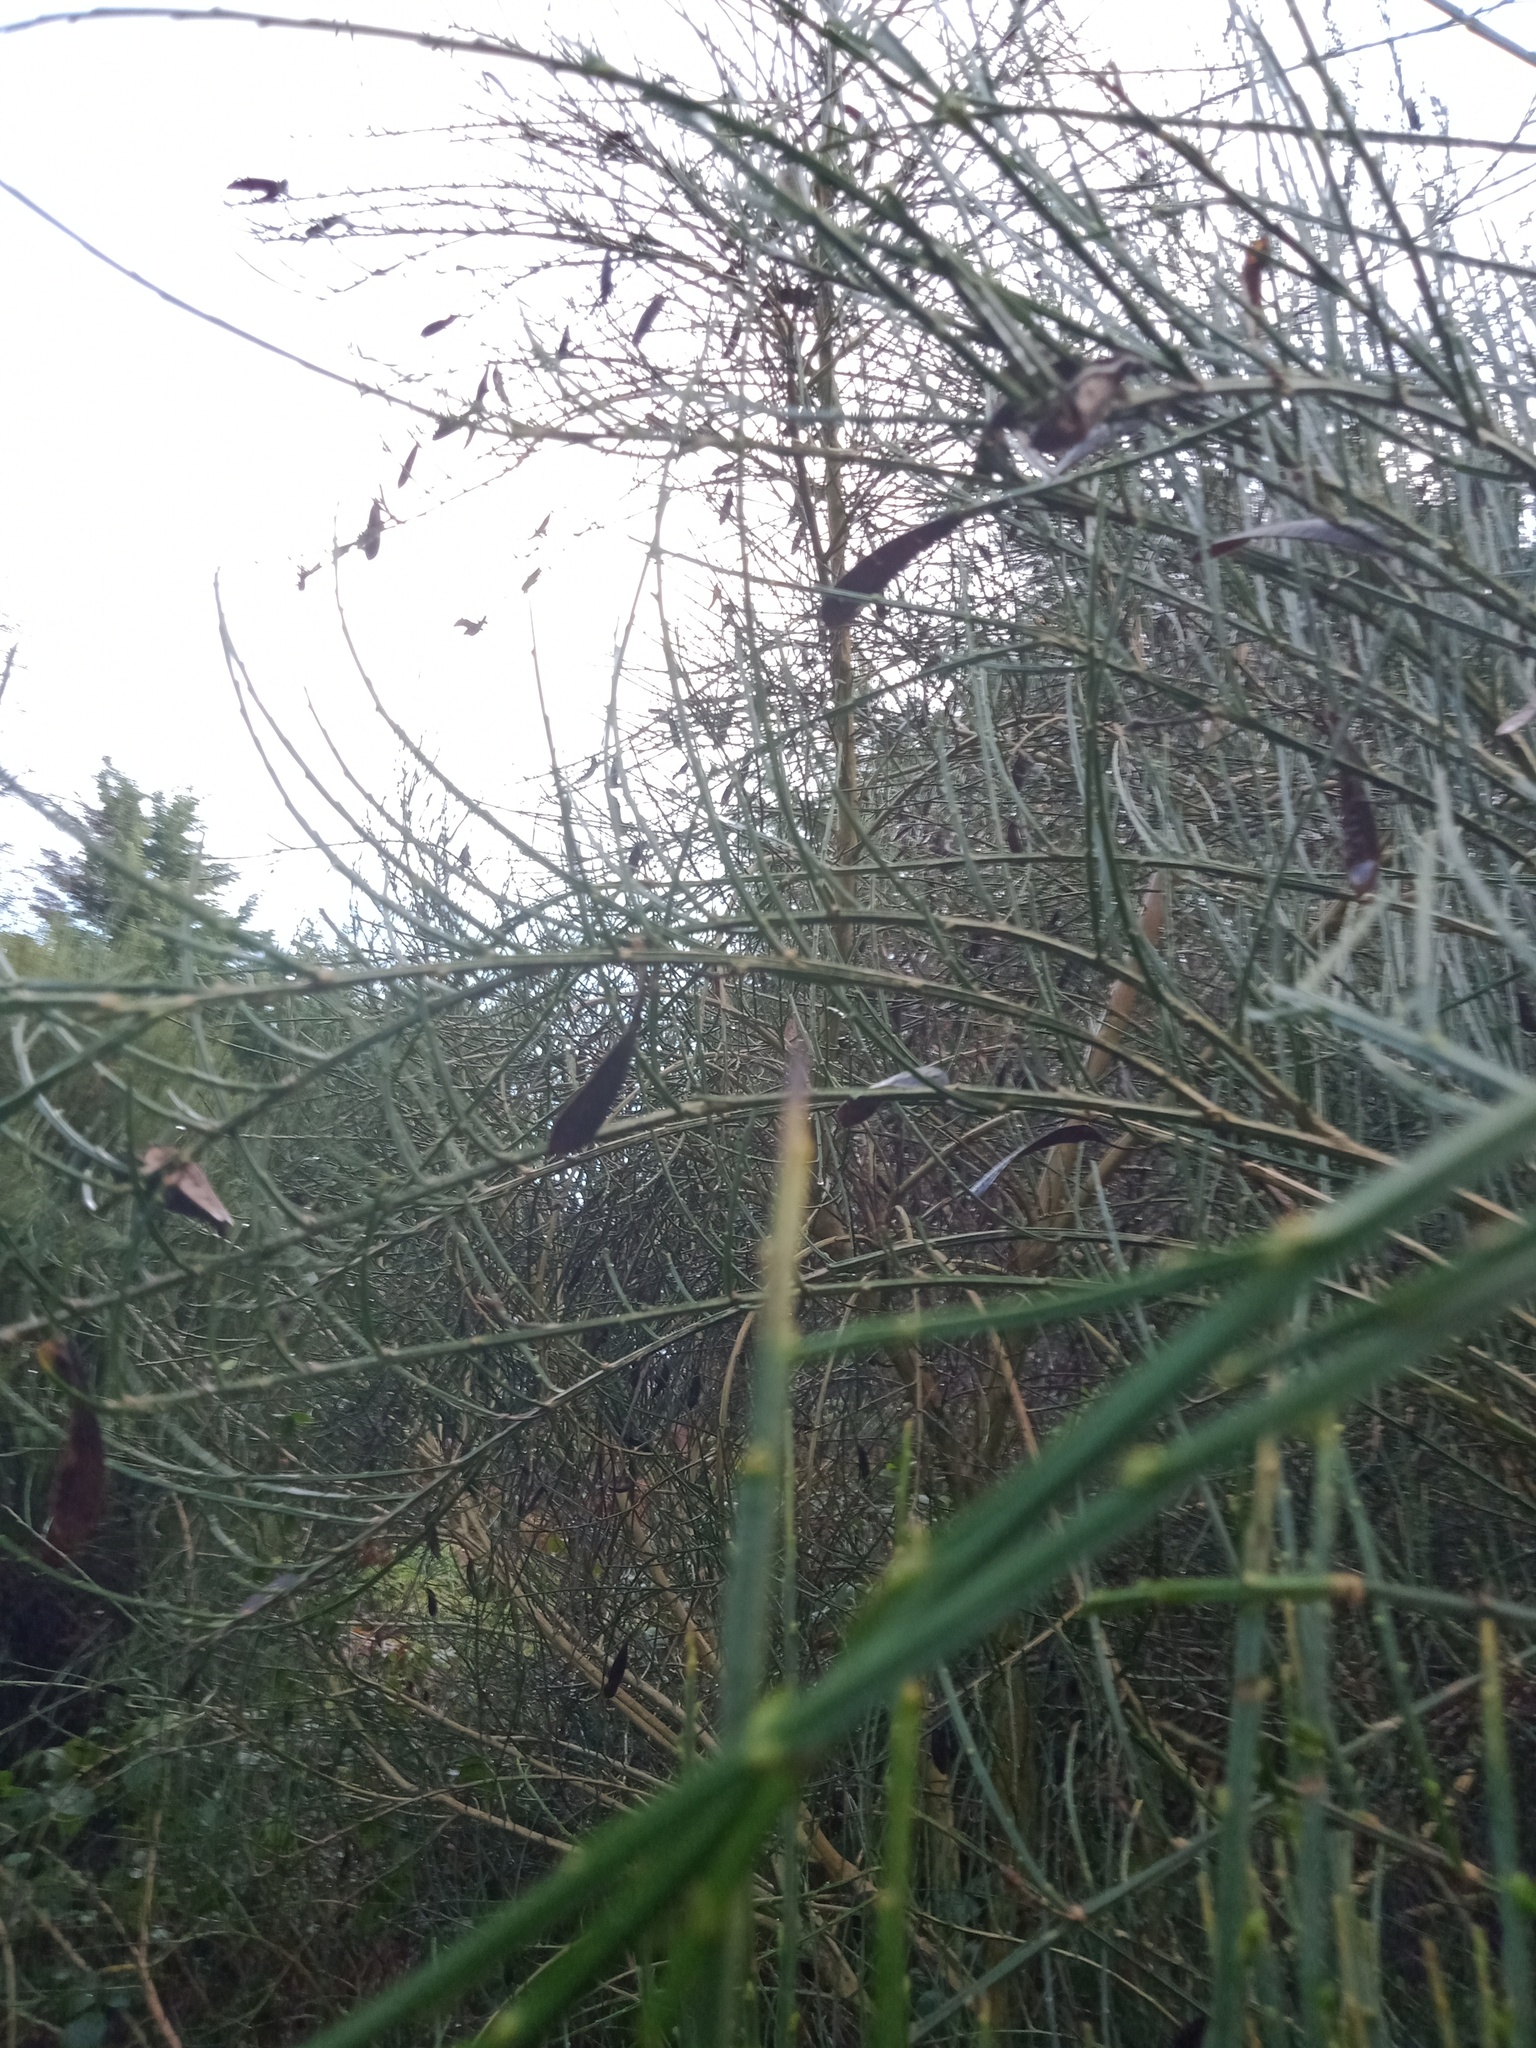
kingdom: Plantae
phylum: Tracheophyta
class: Magnoliopsida
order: Fabales
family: Fabaceae
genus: Cytisus
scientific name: Cytisus scoparius
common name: Scotch broom
